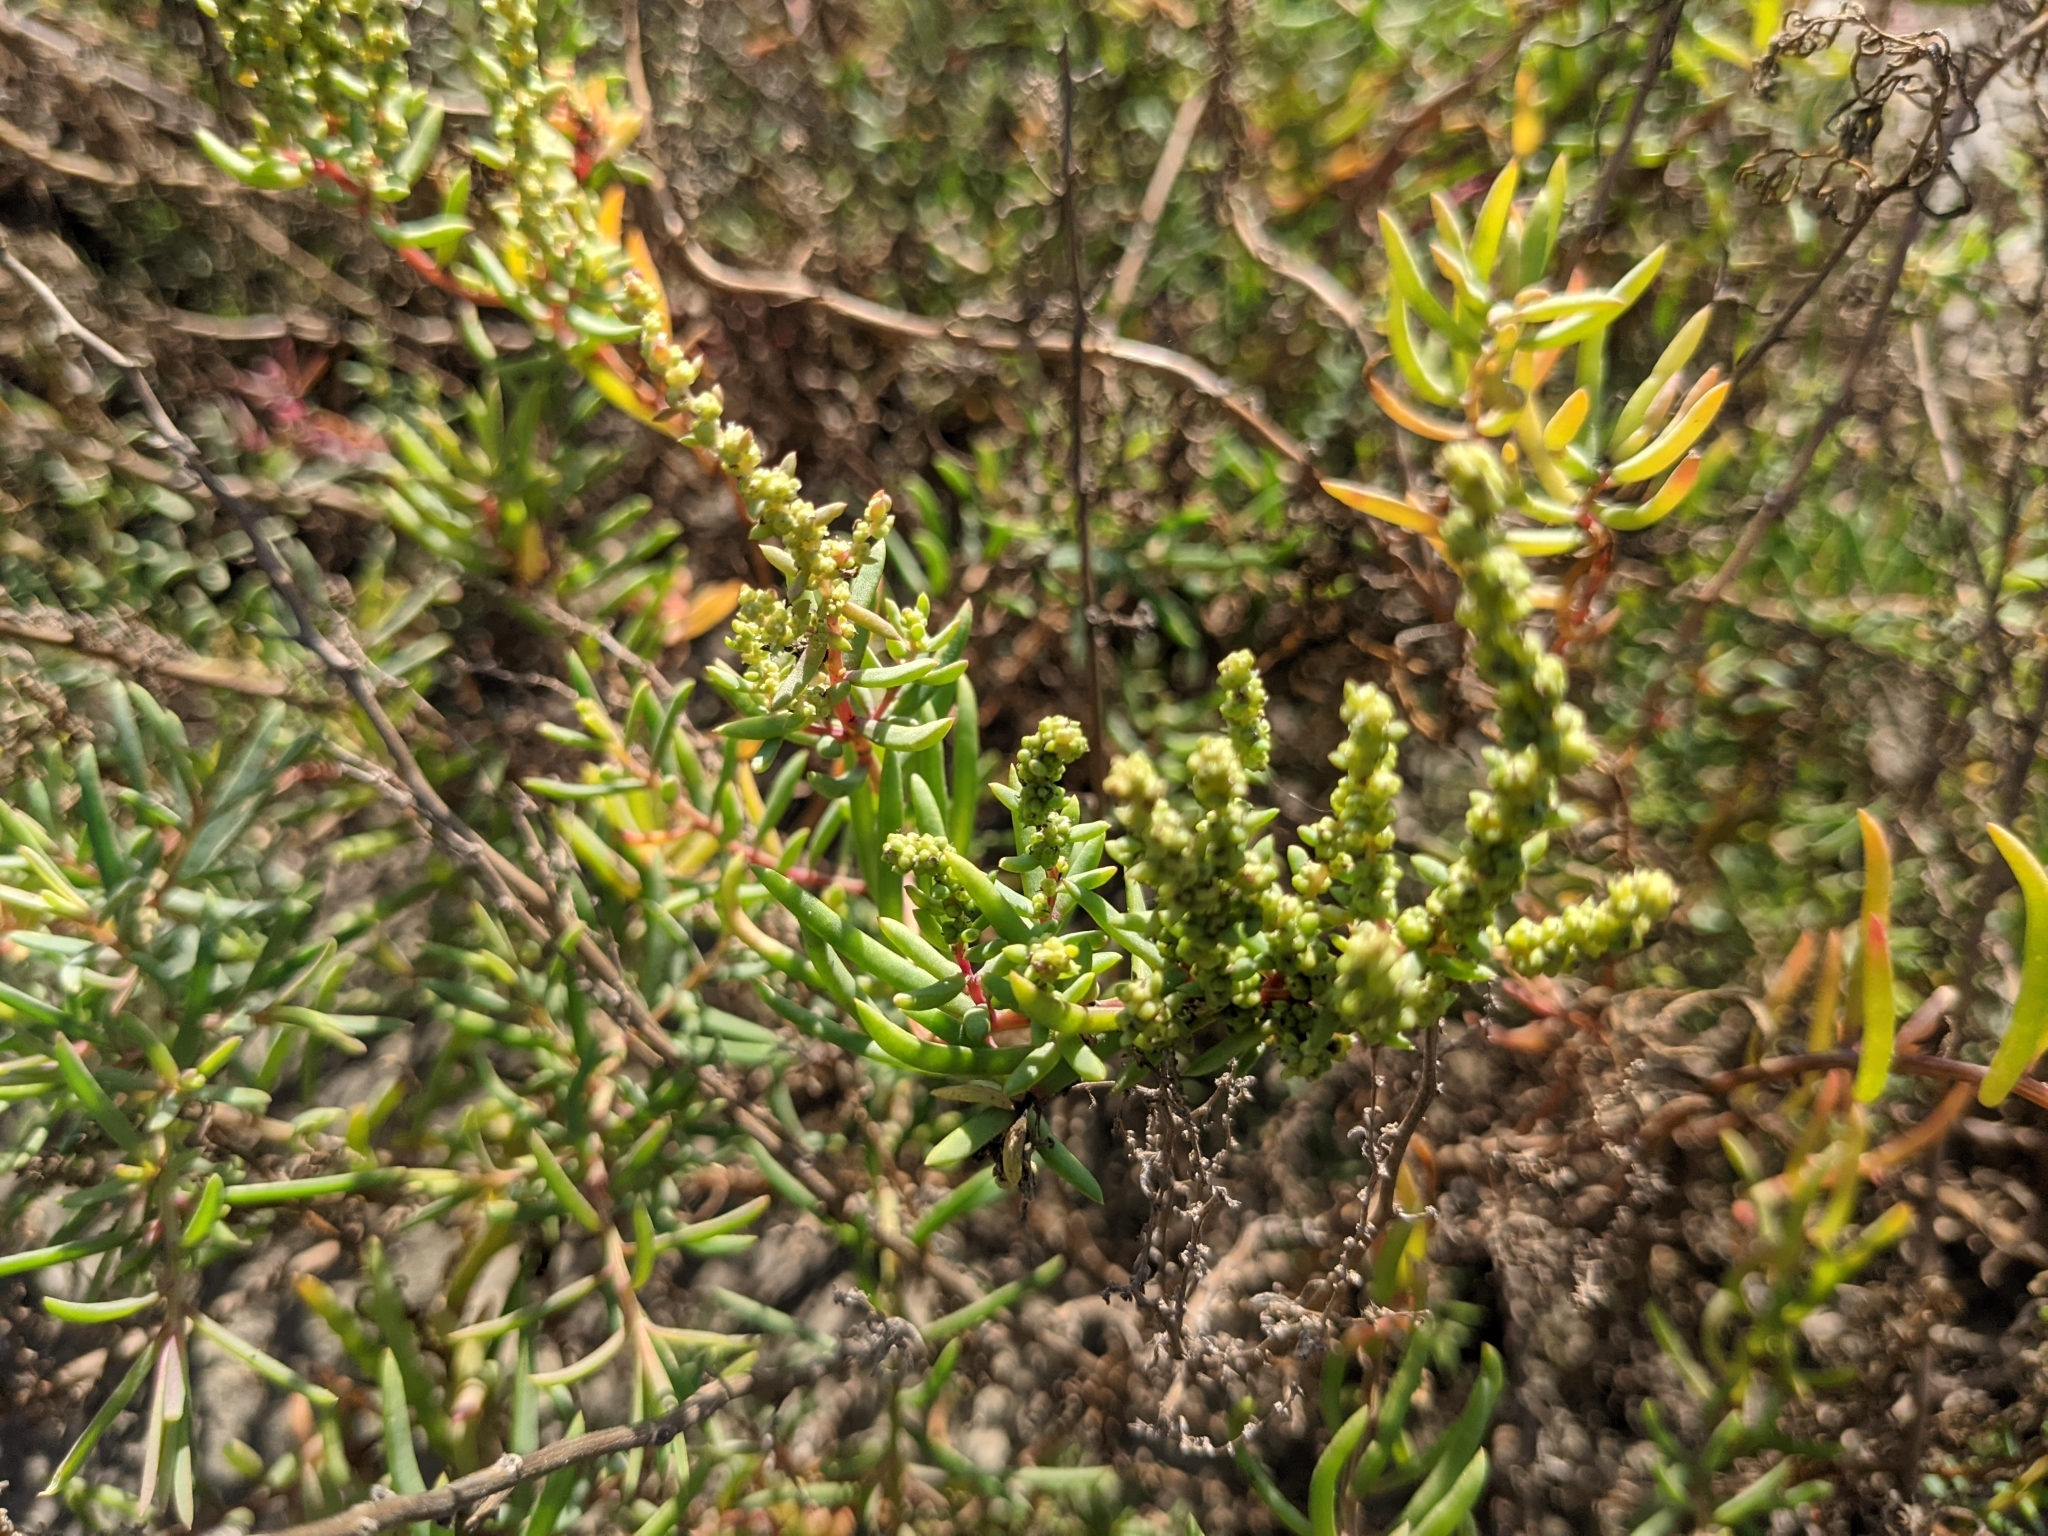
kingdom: Plantae
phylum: Tracheophyta
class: Magnoliopsida
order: Caryophyllales
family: Amaranthaceae
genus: Suaeda
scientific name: Suaeda maritima
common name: Annual sea-blite
